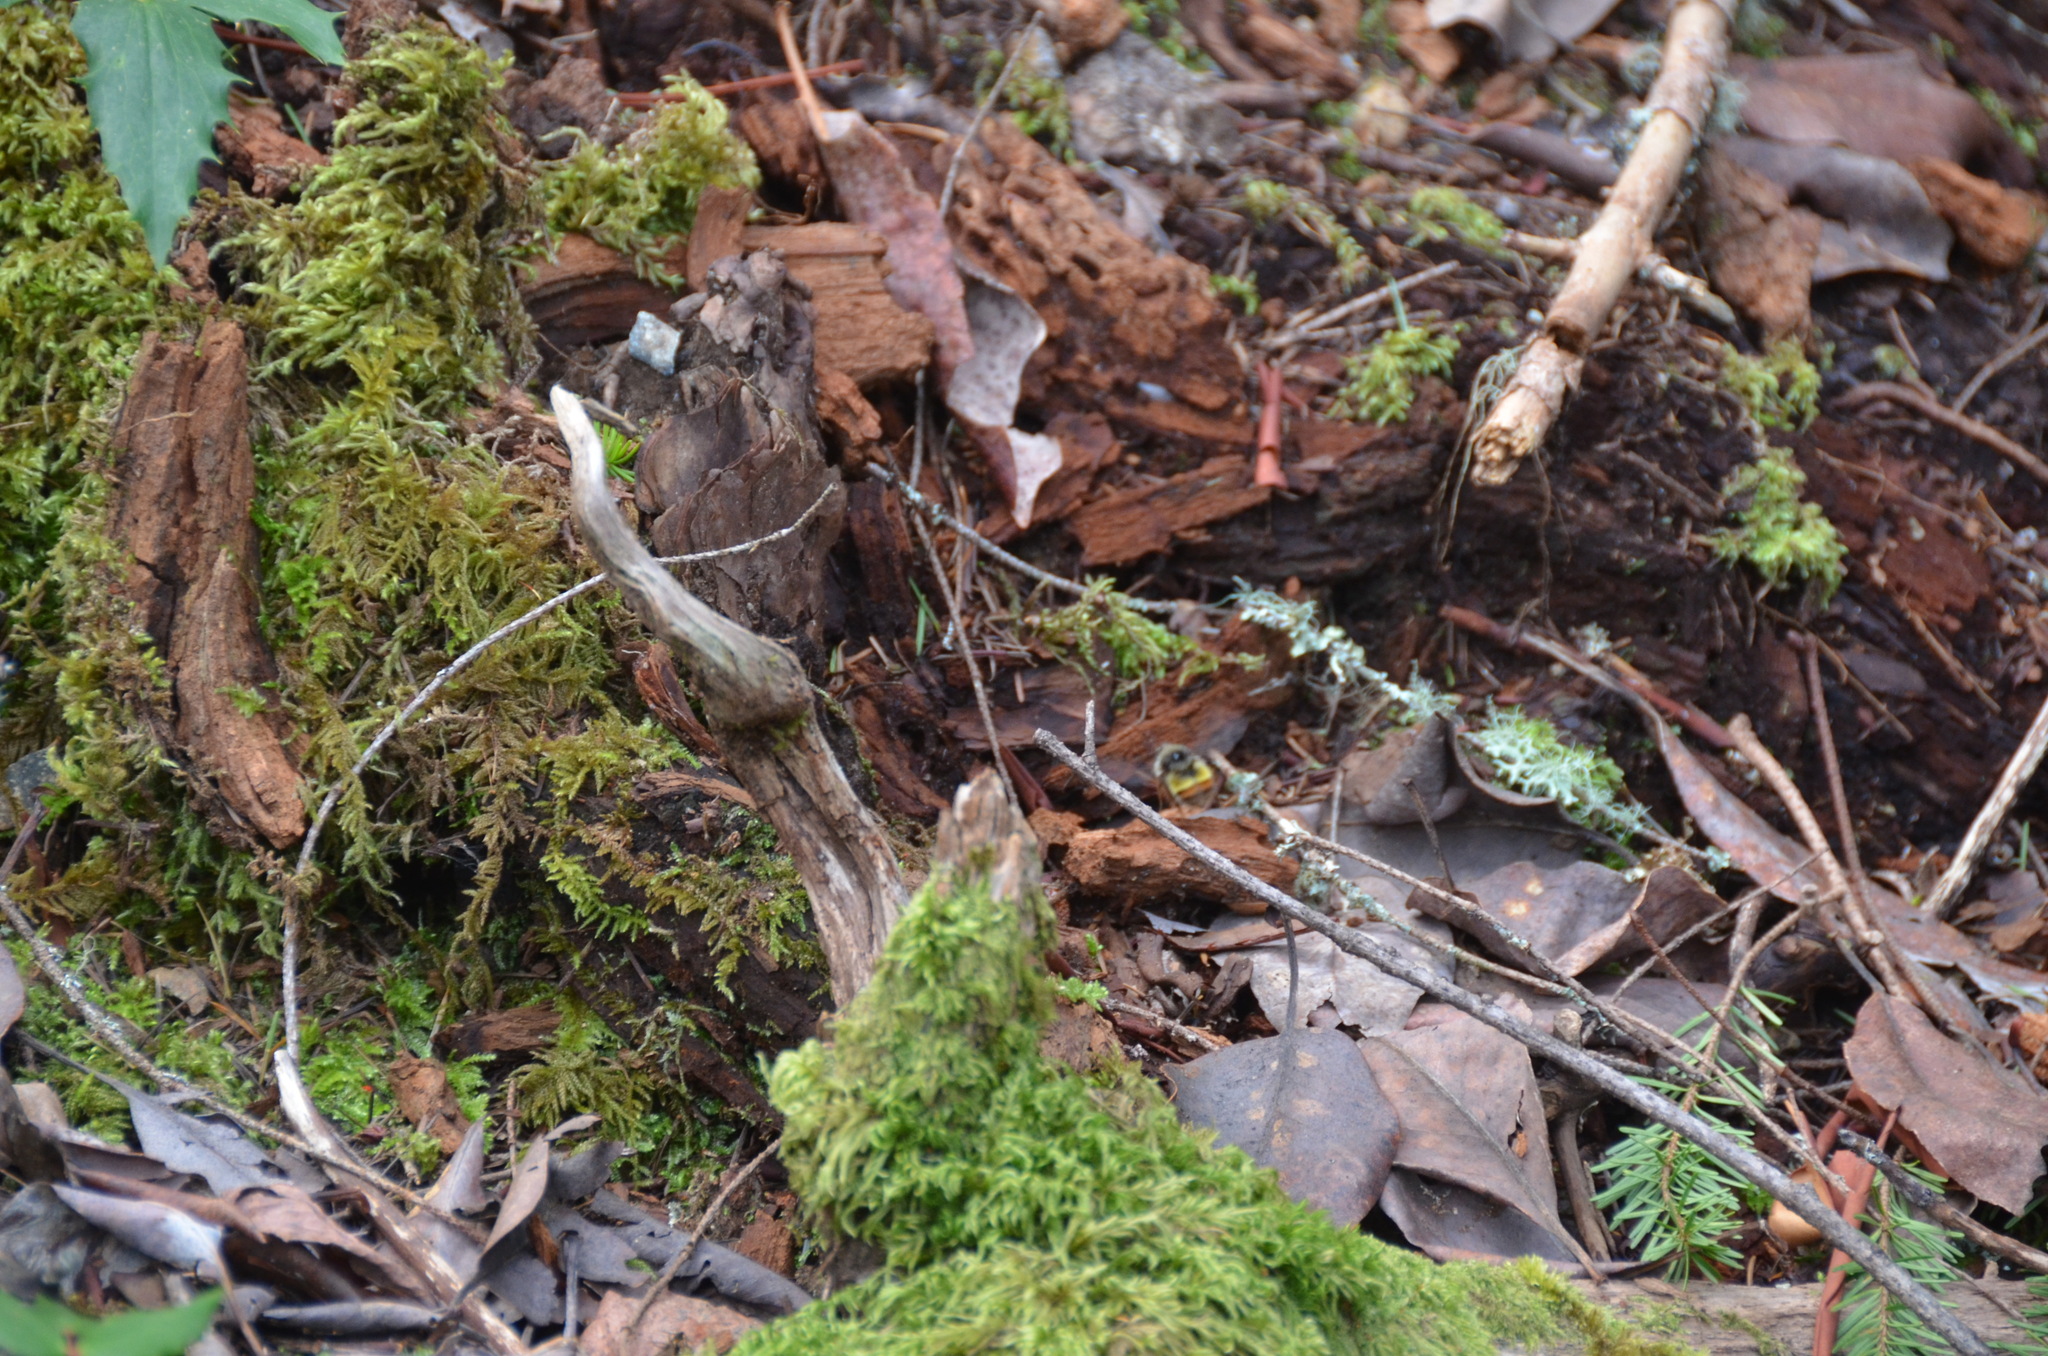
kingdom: Animalia
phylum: Arthropoda
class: Insecta
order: Hymenoptera
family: Apidae
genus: Bombus
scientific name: Bombus flavifrons
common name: Yellow head bumble bee
